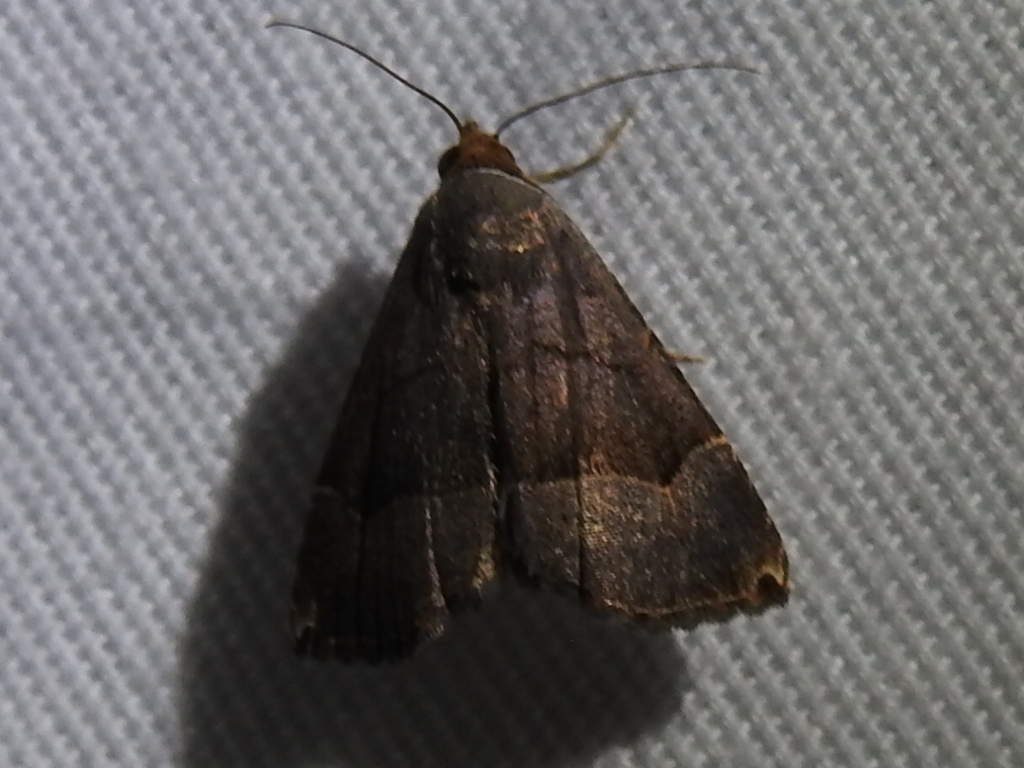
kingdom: Animalia
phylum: Arthropoda
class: Insecta
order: Lepidoptera
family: Noctuidae
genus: Abacena
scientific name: Abacena mundula
